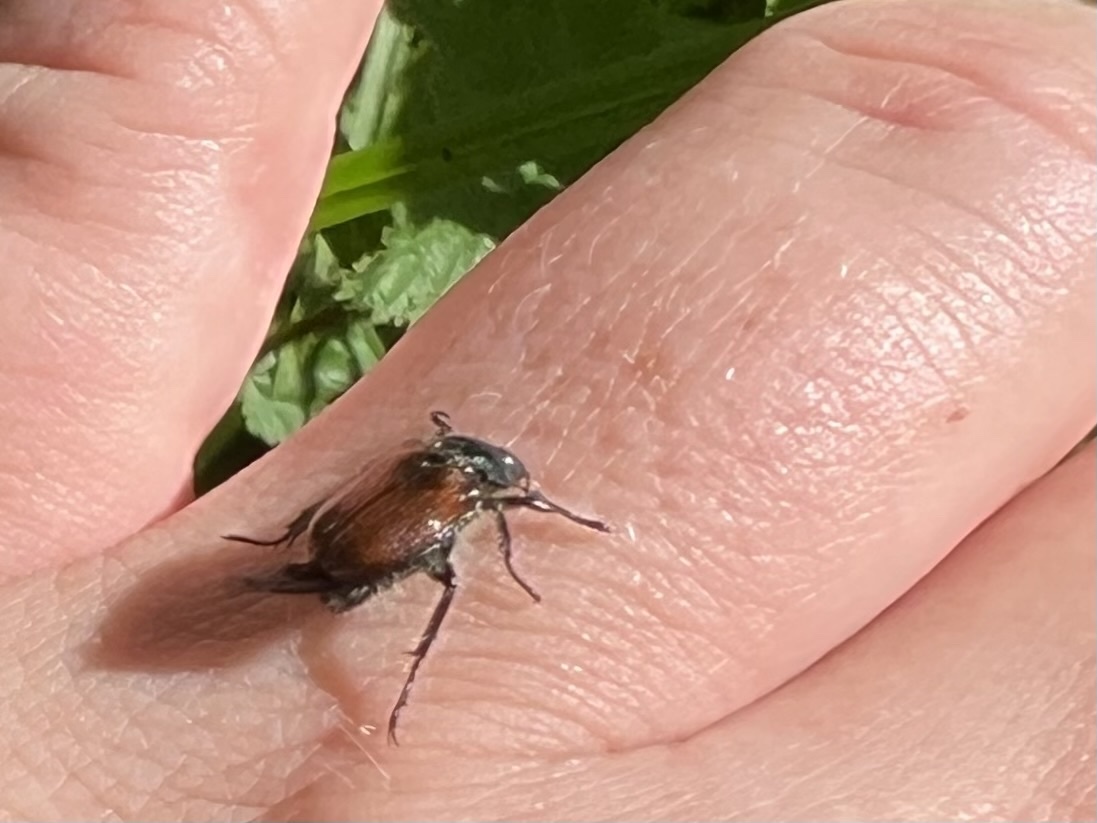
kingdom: Animalia
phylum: Arthropoda
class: Insecta
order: Coleoptera
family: Scarabaeidae
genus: Phyllopertha
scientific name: Phyllopertha horticola
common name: Garden chafer
